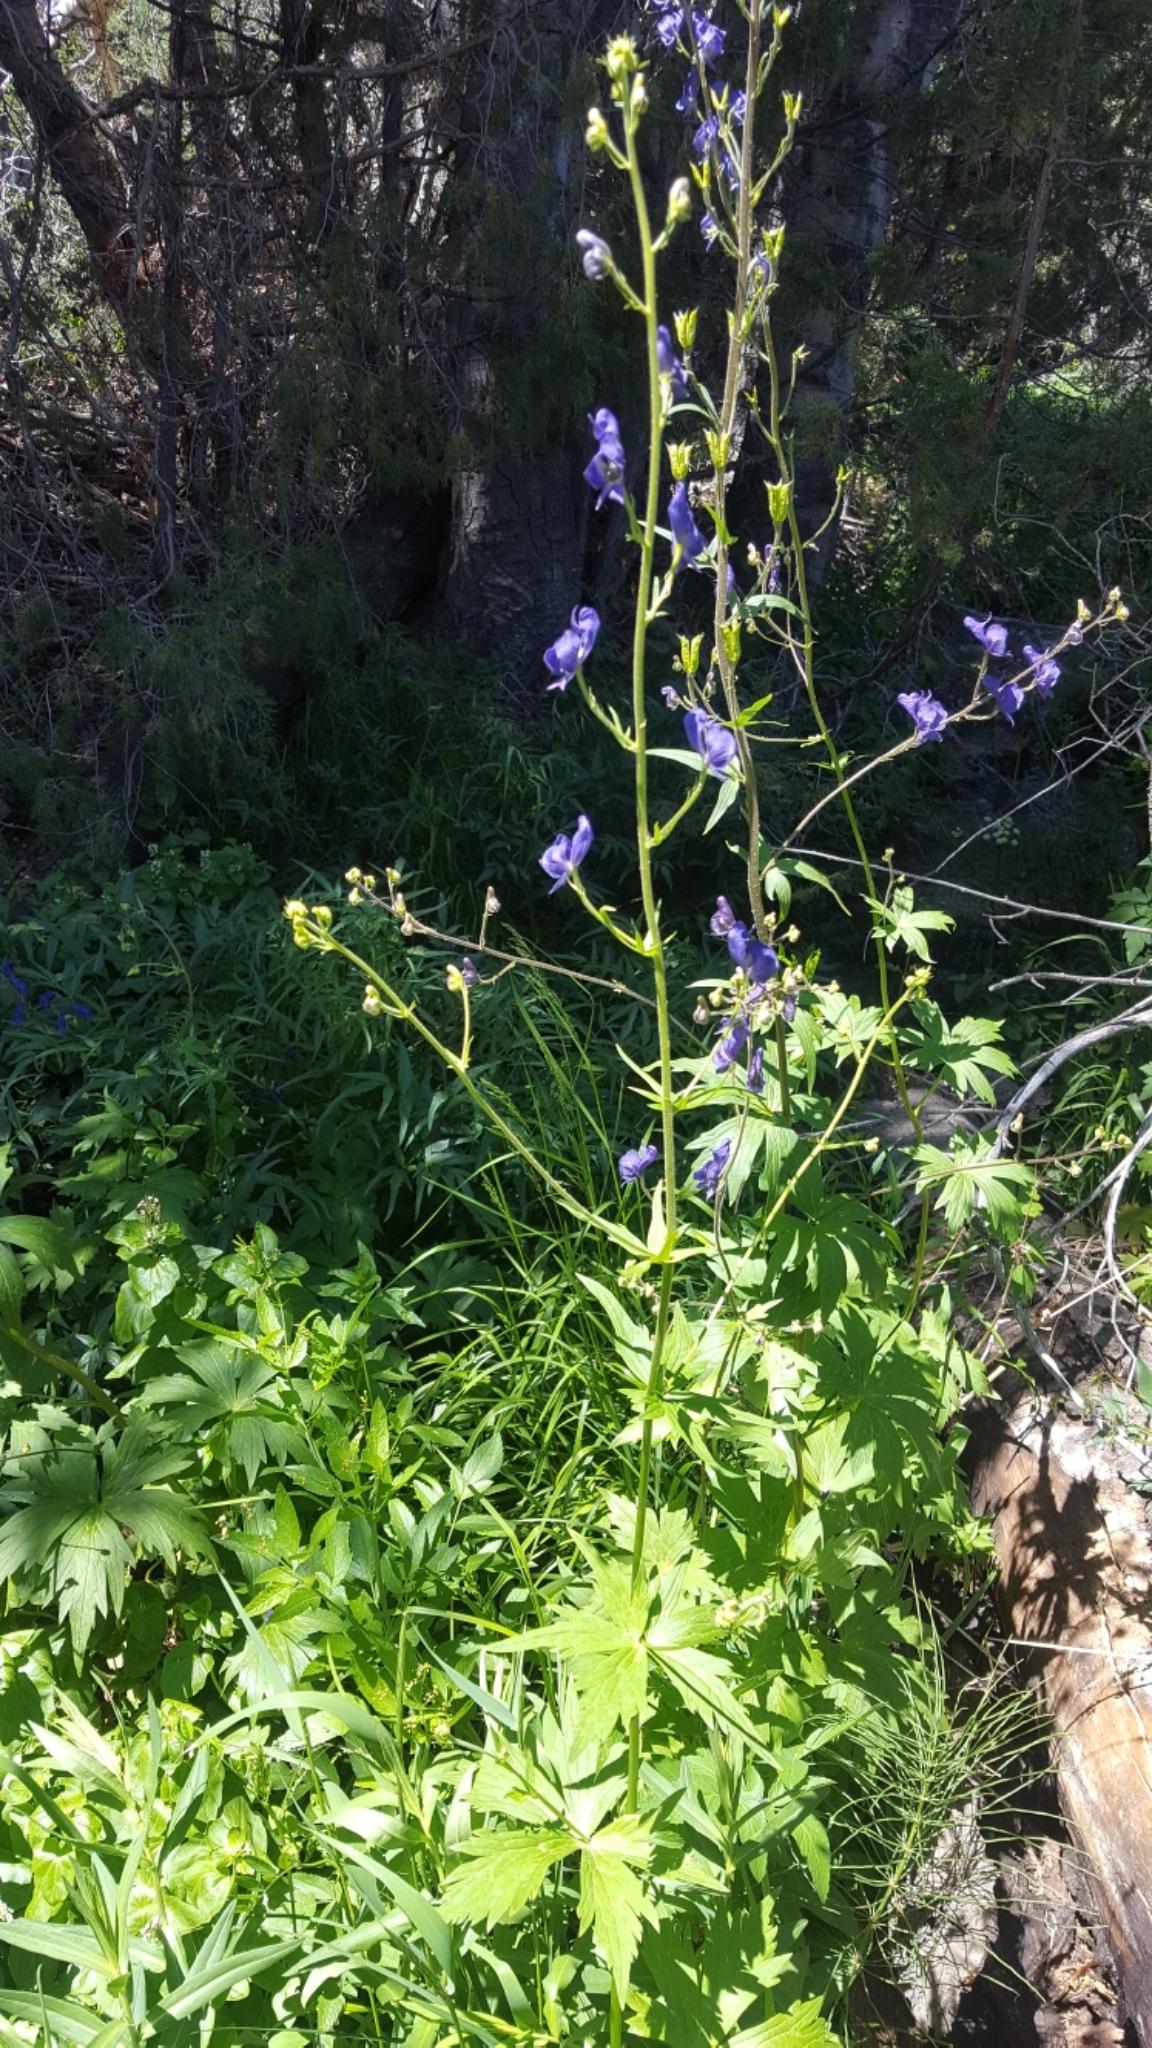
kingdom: Plantae
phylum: Tracheophyta
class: Magnoliopsida
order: Ranunculales
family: Ranunculaceae
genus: Aconitum
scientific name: Aconitum columbianum
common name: Columbia aconite
